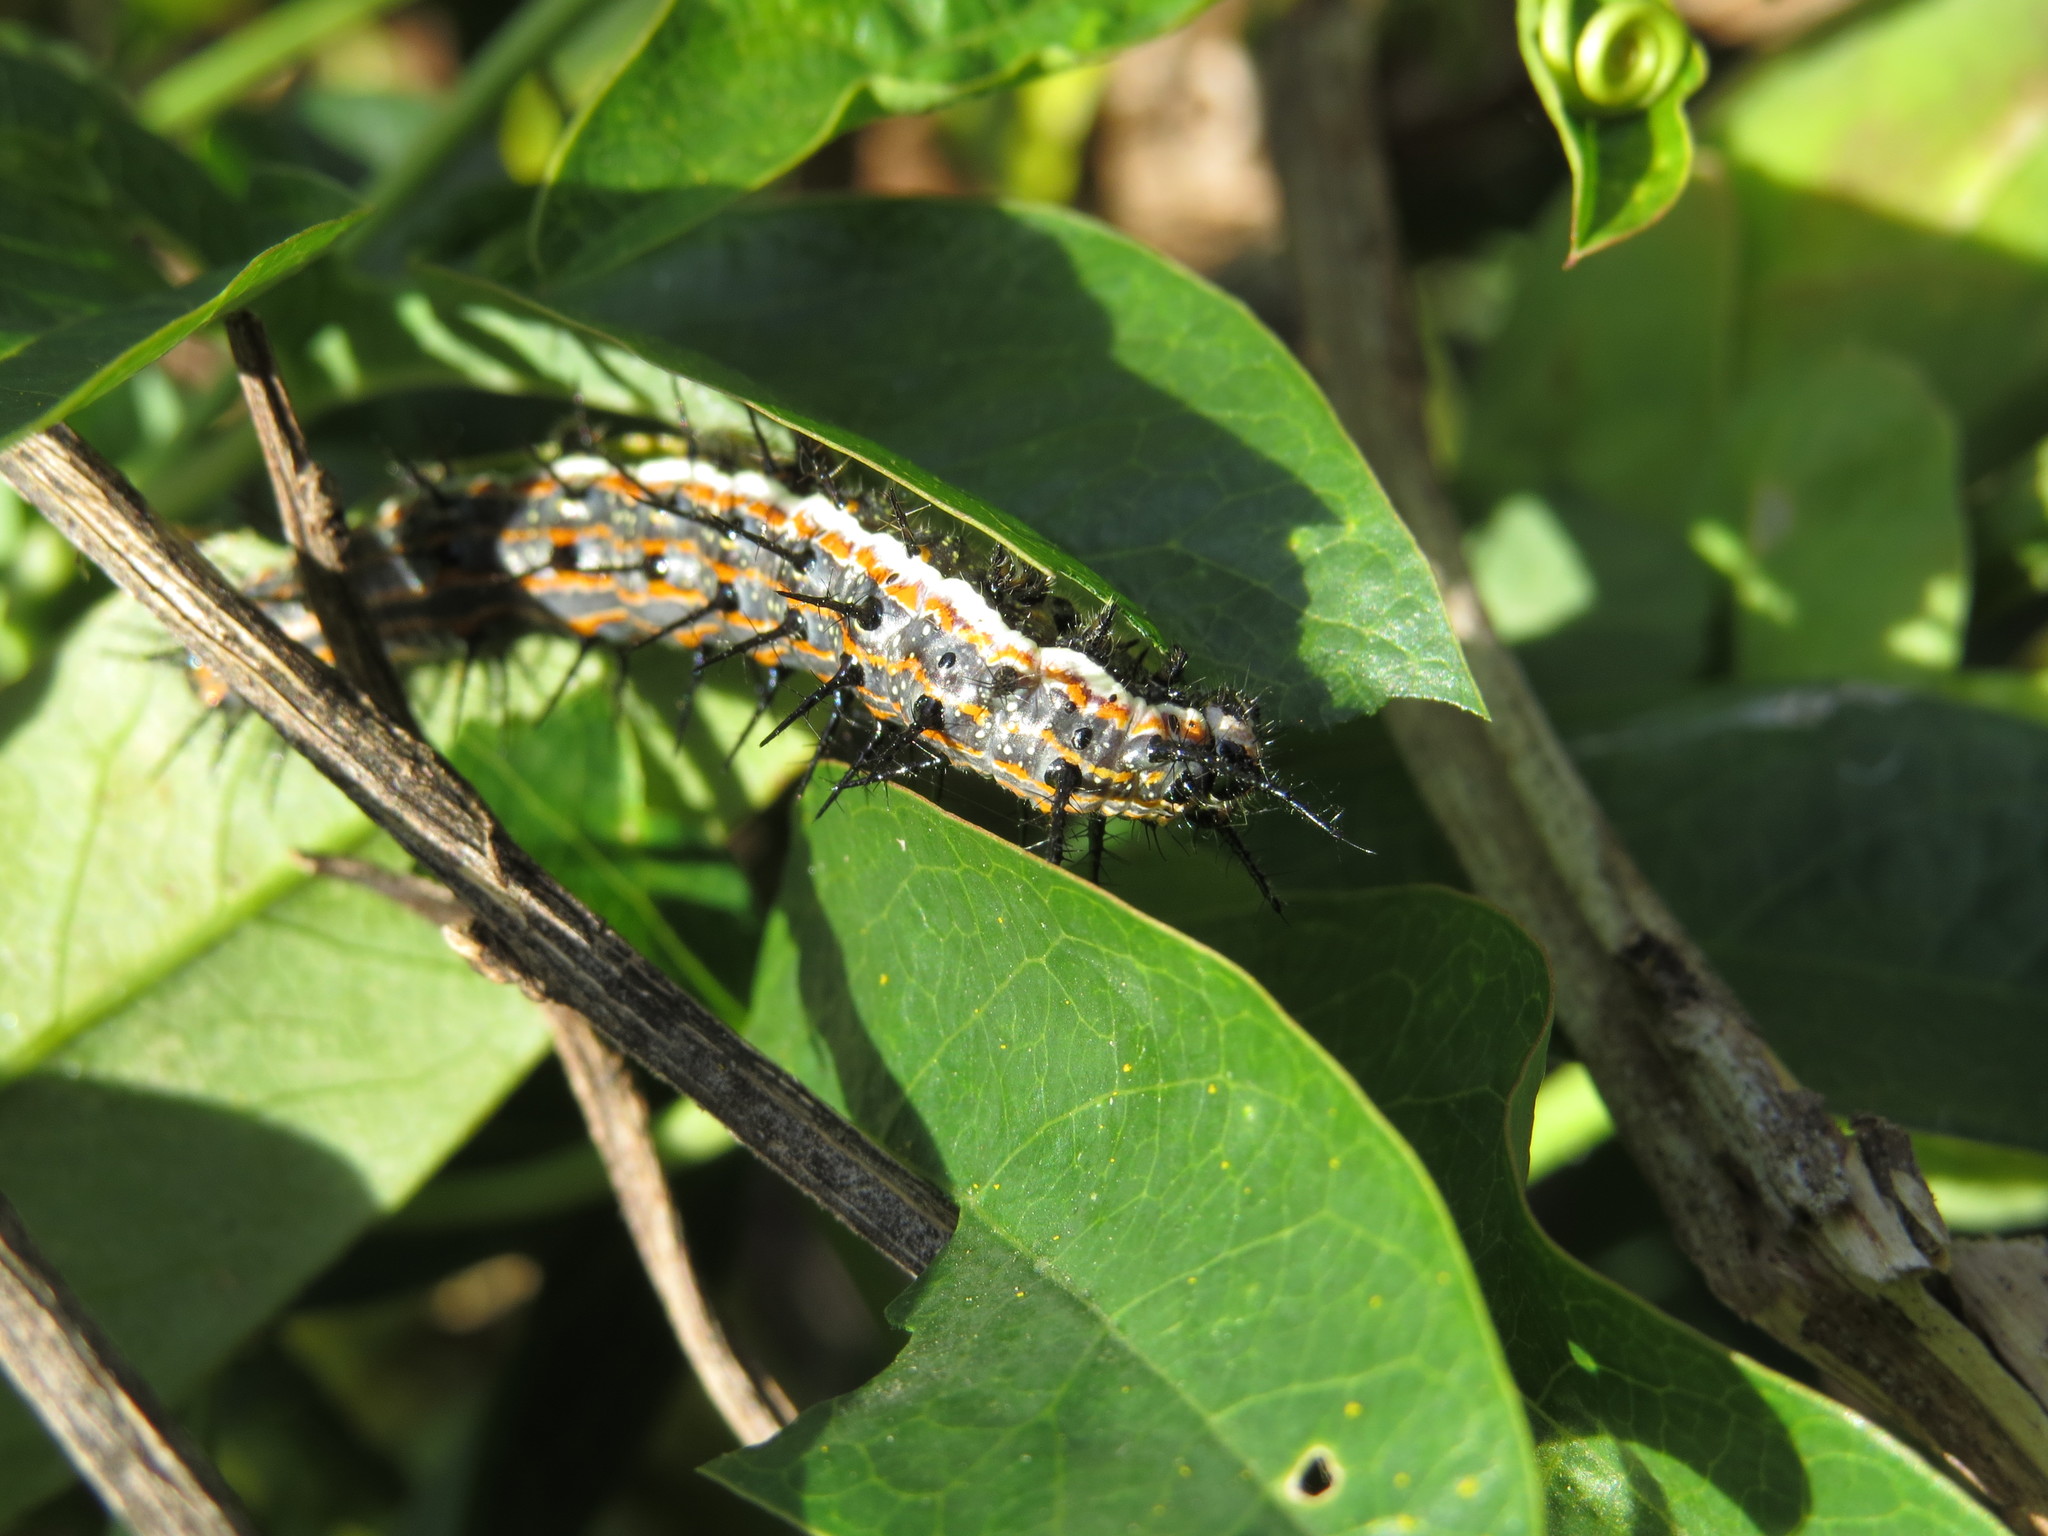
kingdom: Animalia
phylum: Arthropoda
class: Insecta
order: Lepidoptera
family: Nymphalidae
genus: Dione
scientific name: Dione vanillae
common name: Gulf fritillary
